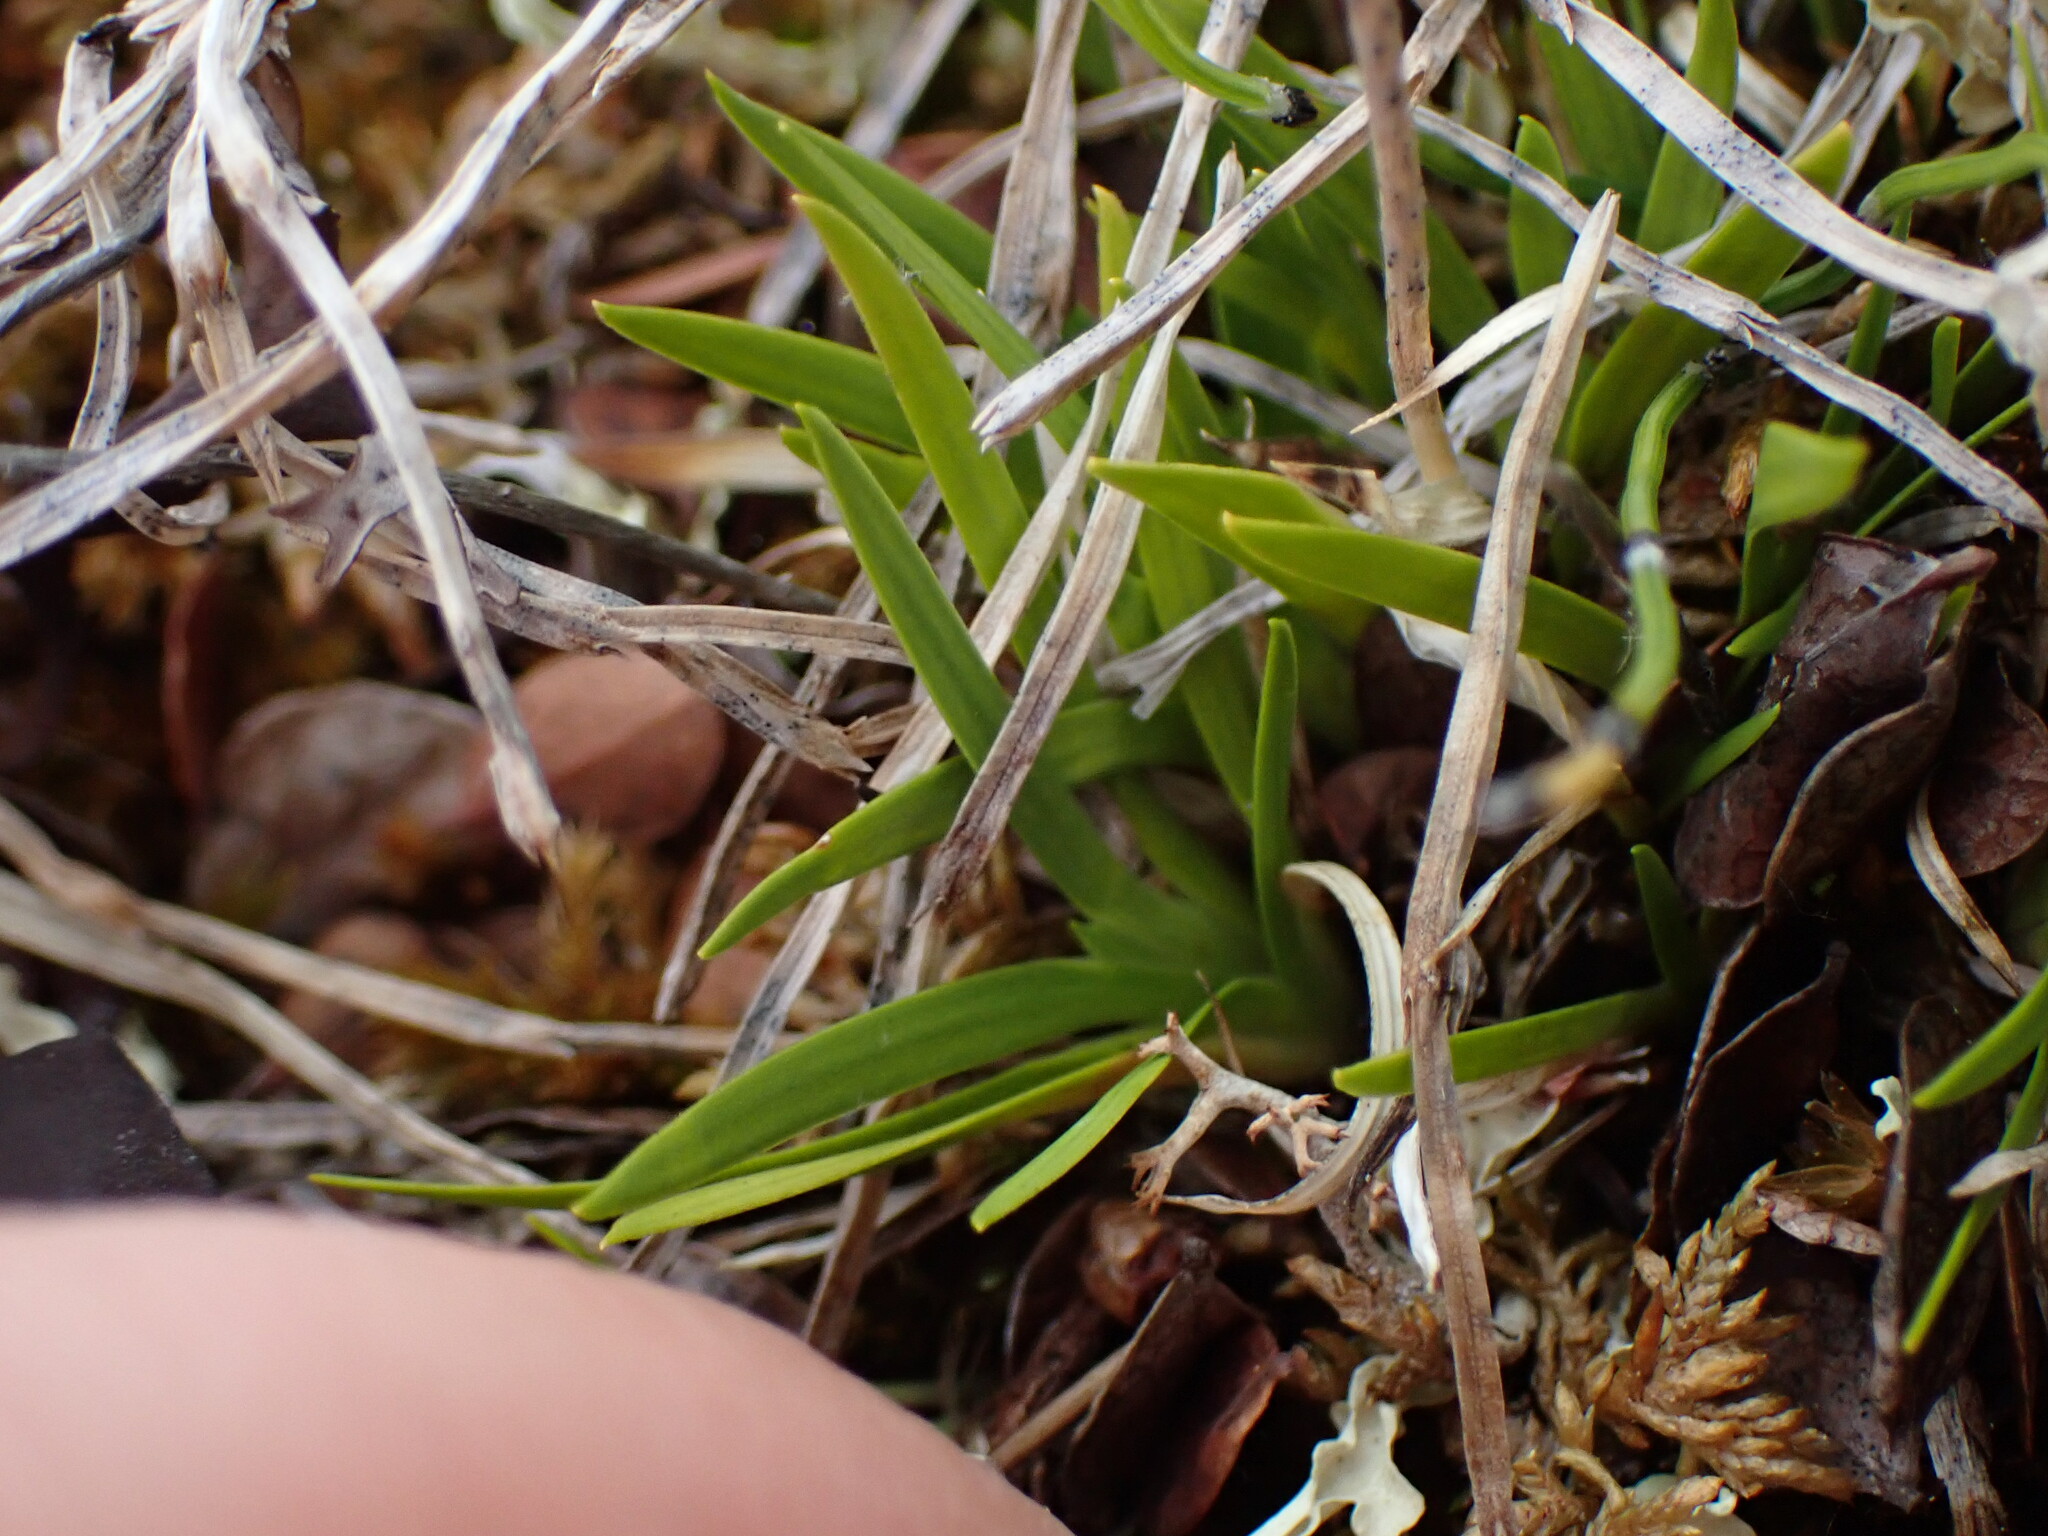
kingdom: Plantae
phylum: Tracheophyta
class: Liliopsida
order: Alismatales
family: Tofieldiaceae
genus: Tofieldia
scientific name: Tofieldia pusilla
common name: Scottish false asphodel
